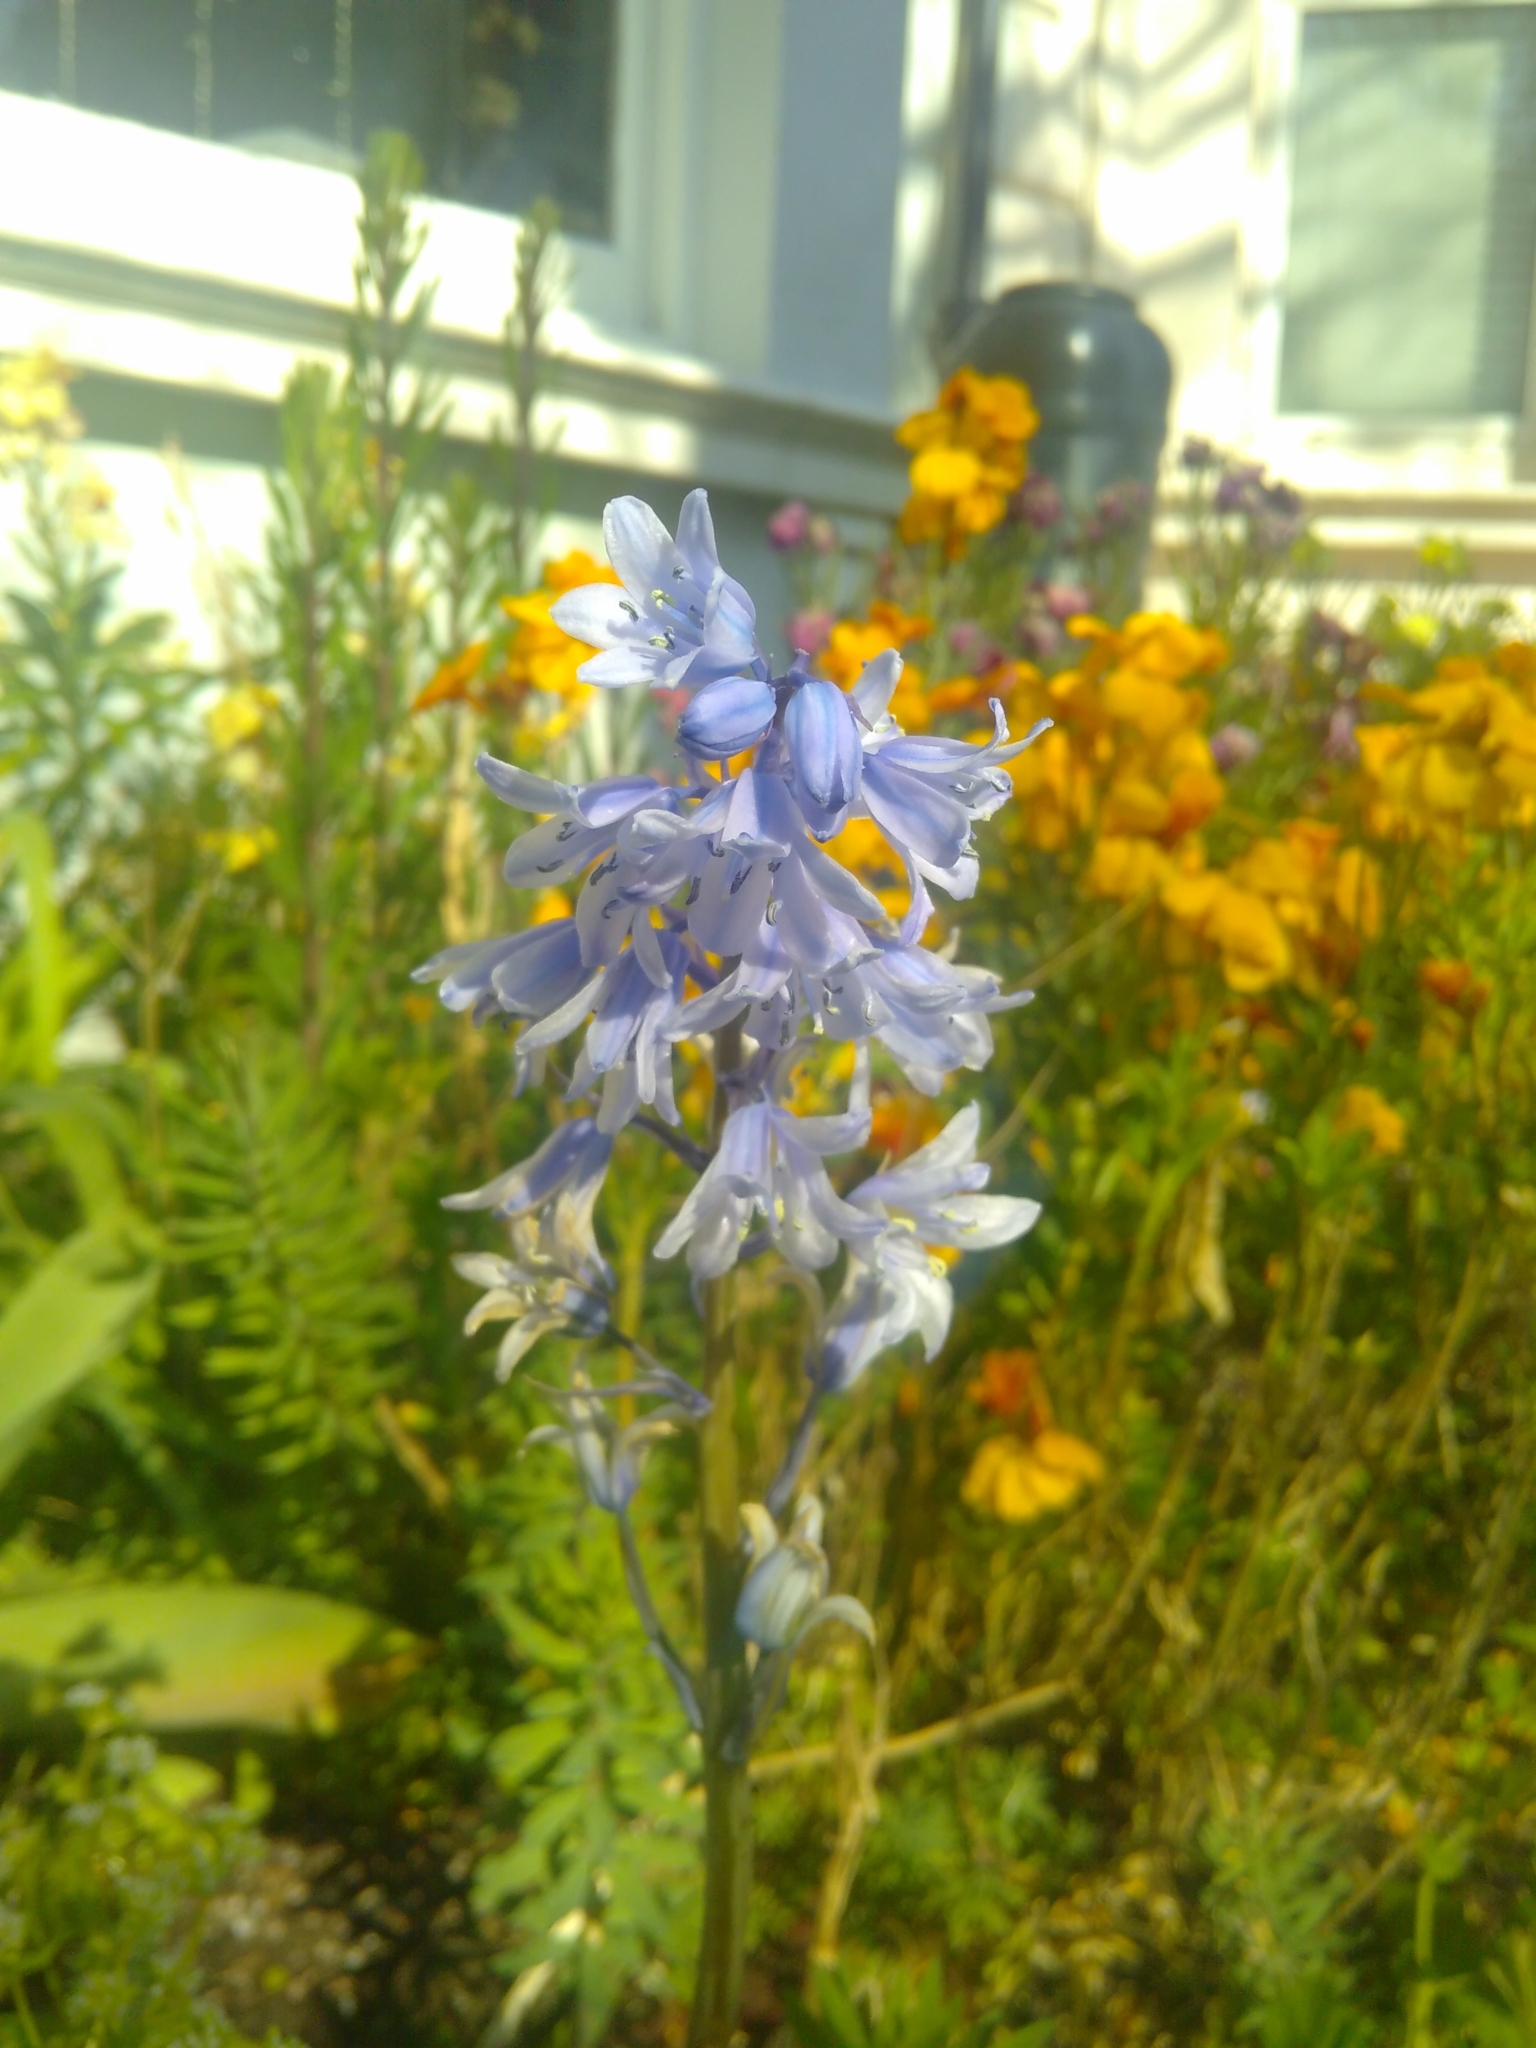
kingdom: Plantae
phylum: Tracheophyta
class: Liliopsida
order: Asparagales
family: Asparagaceae
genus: Hyacinthoides
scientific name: Hyacinthoides hispanica
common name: Spanish bluebell
